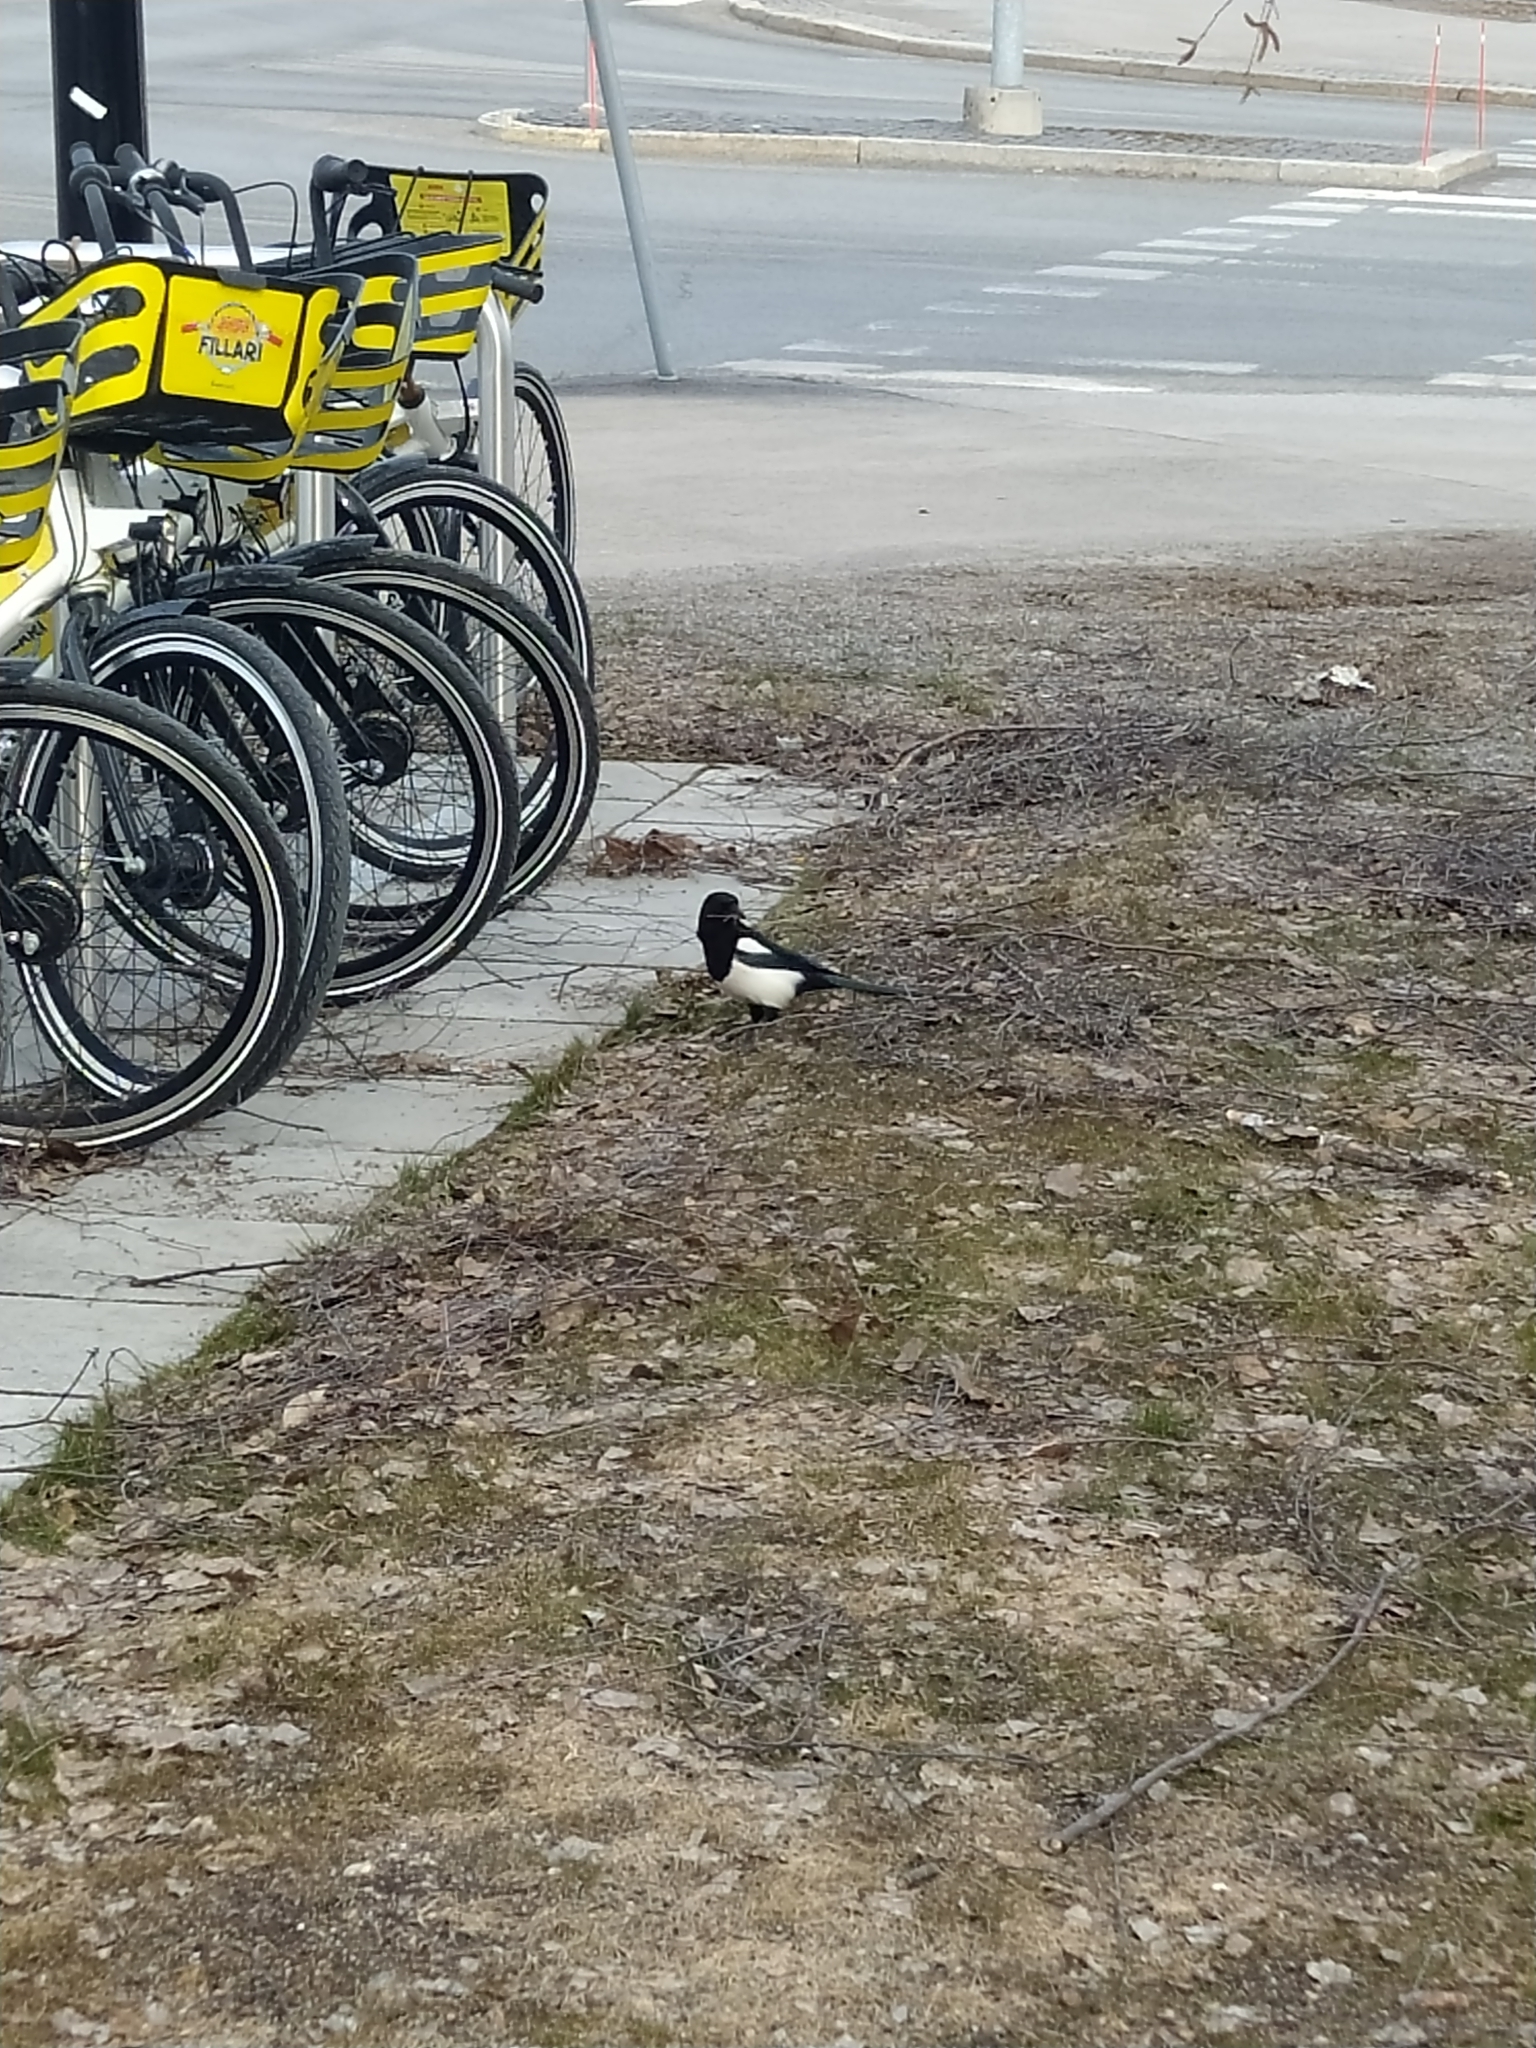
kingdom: Animalia
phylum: Chordata
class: Aves
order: Passeriformes
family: Corvidae
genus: Pica
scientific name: Pica pica
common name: Eurasian magpie
